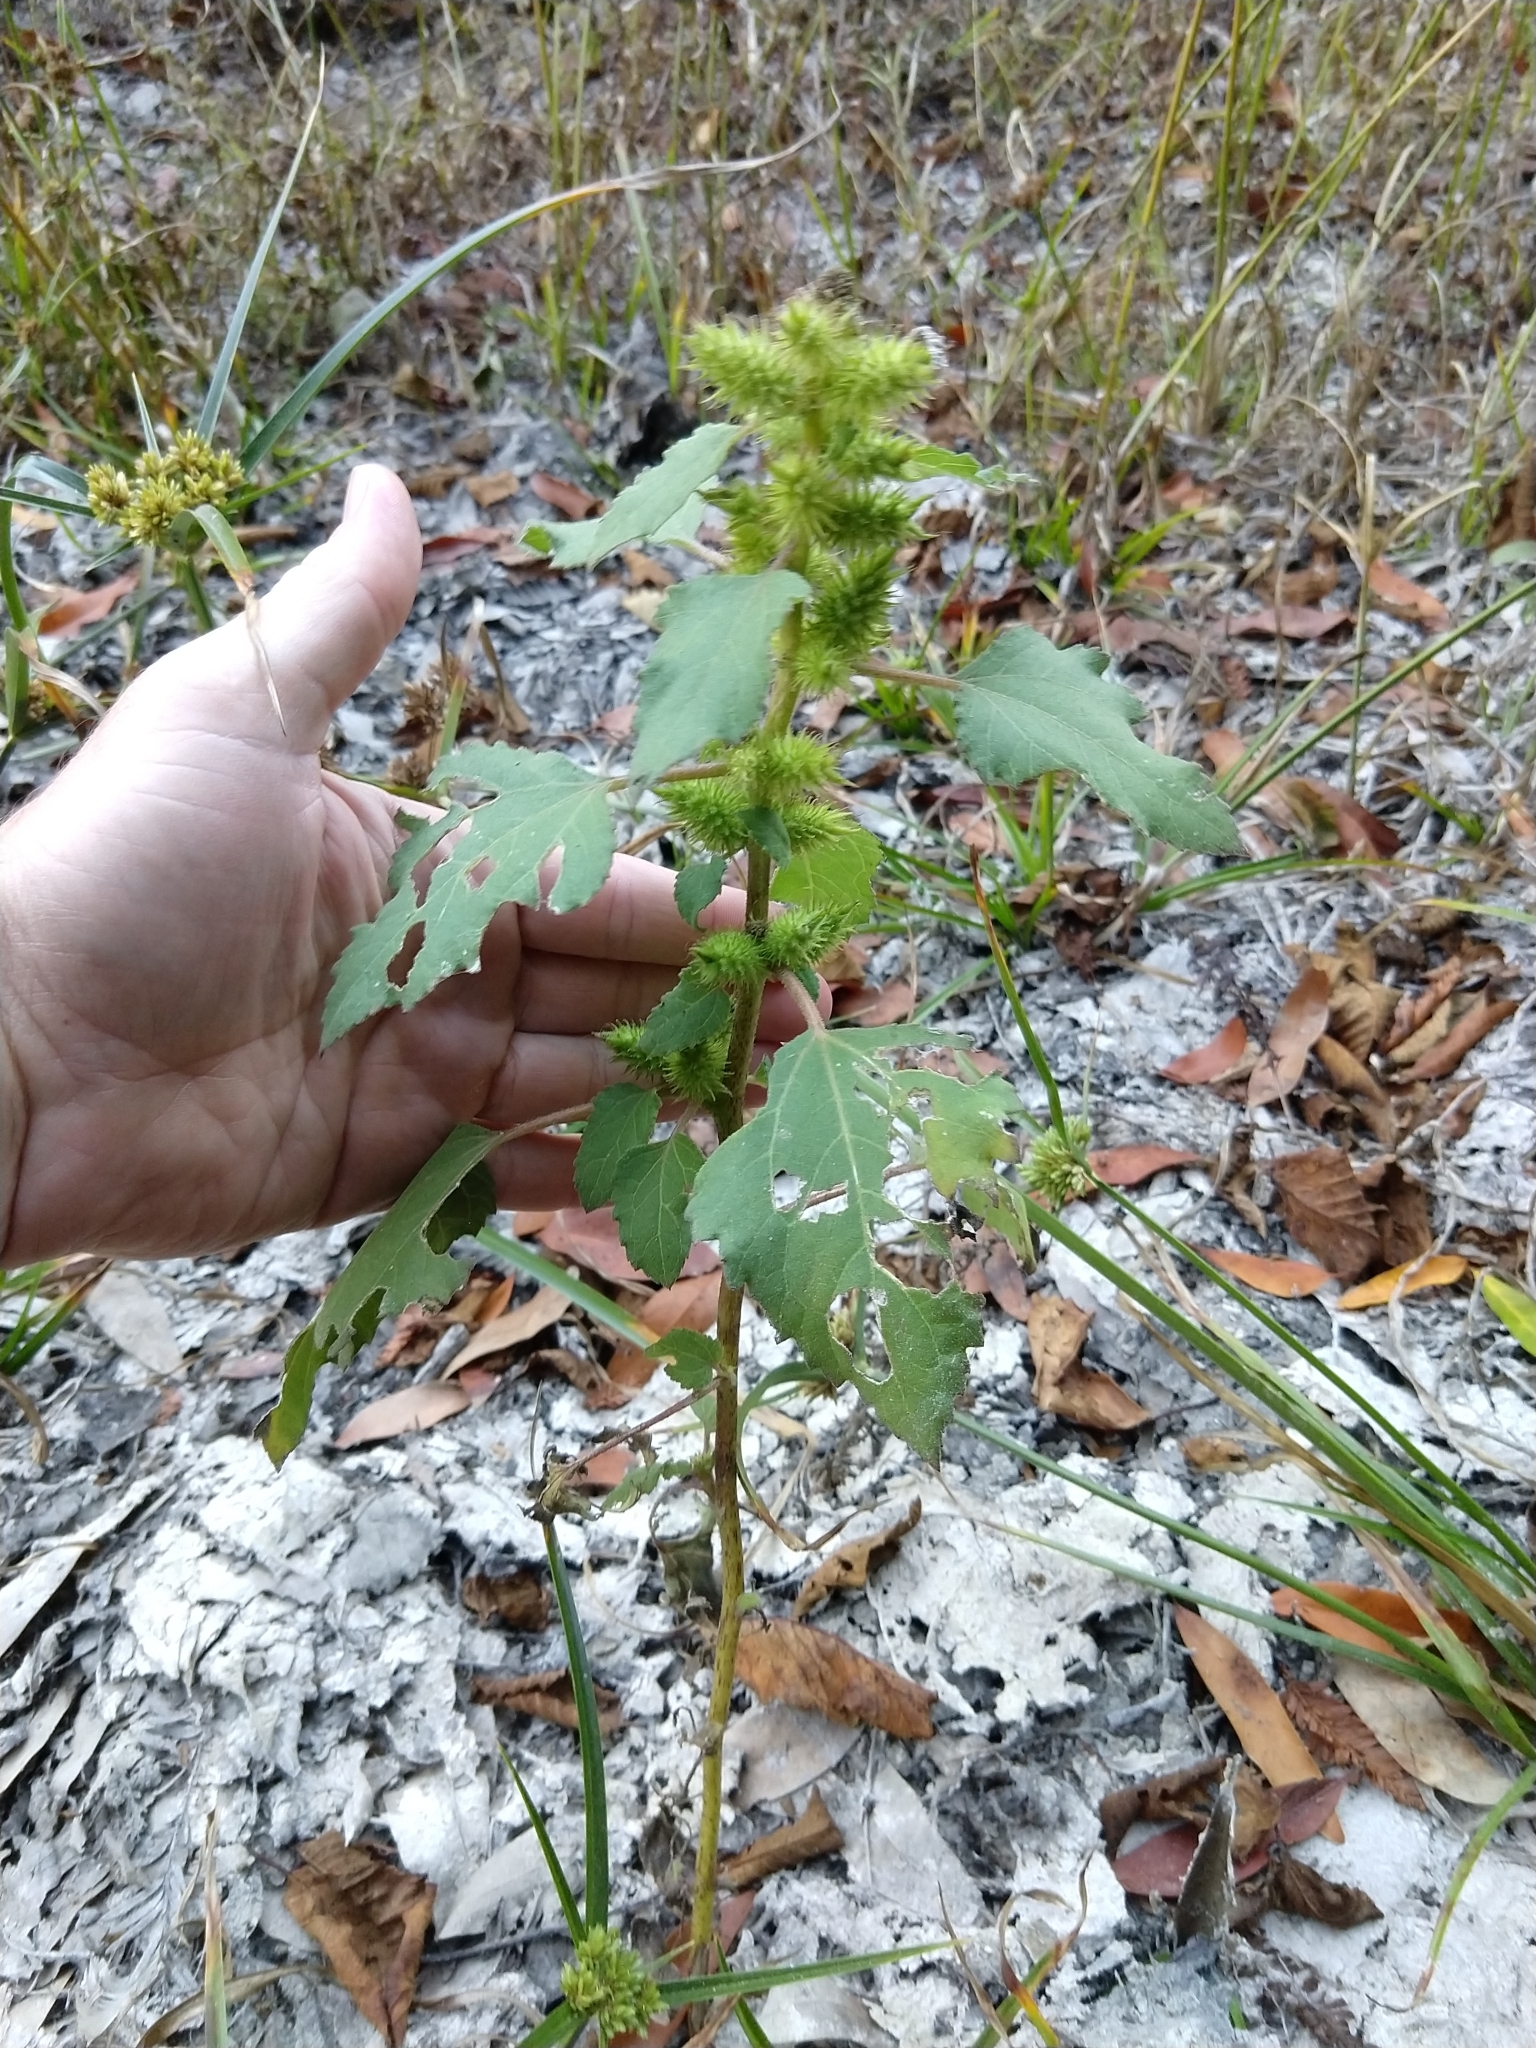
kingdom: Plantae
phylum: Tracheophyta
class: Magnoliopsida
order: Asterales
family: Asteraceae
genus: Xanthium
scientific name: Xanthium strumarium
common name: Rough cocklebur
